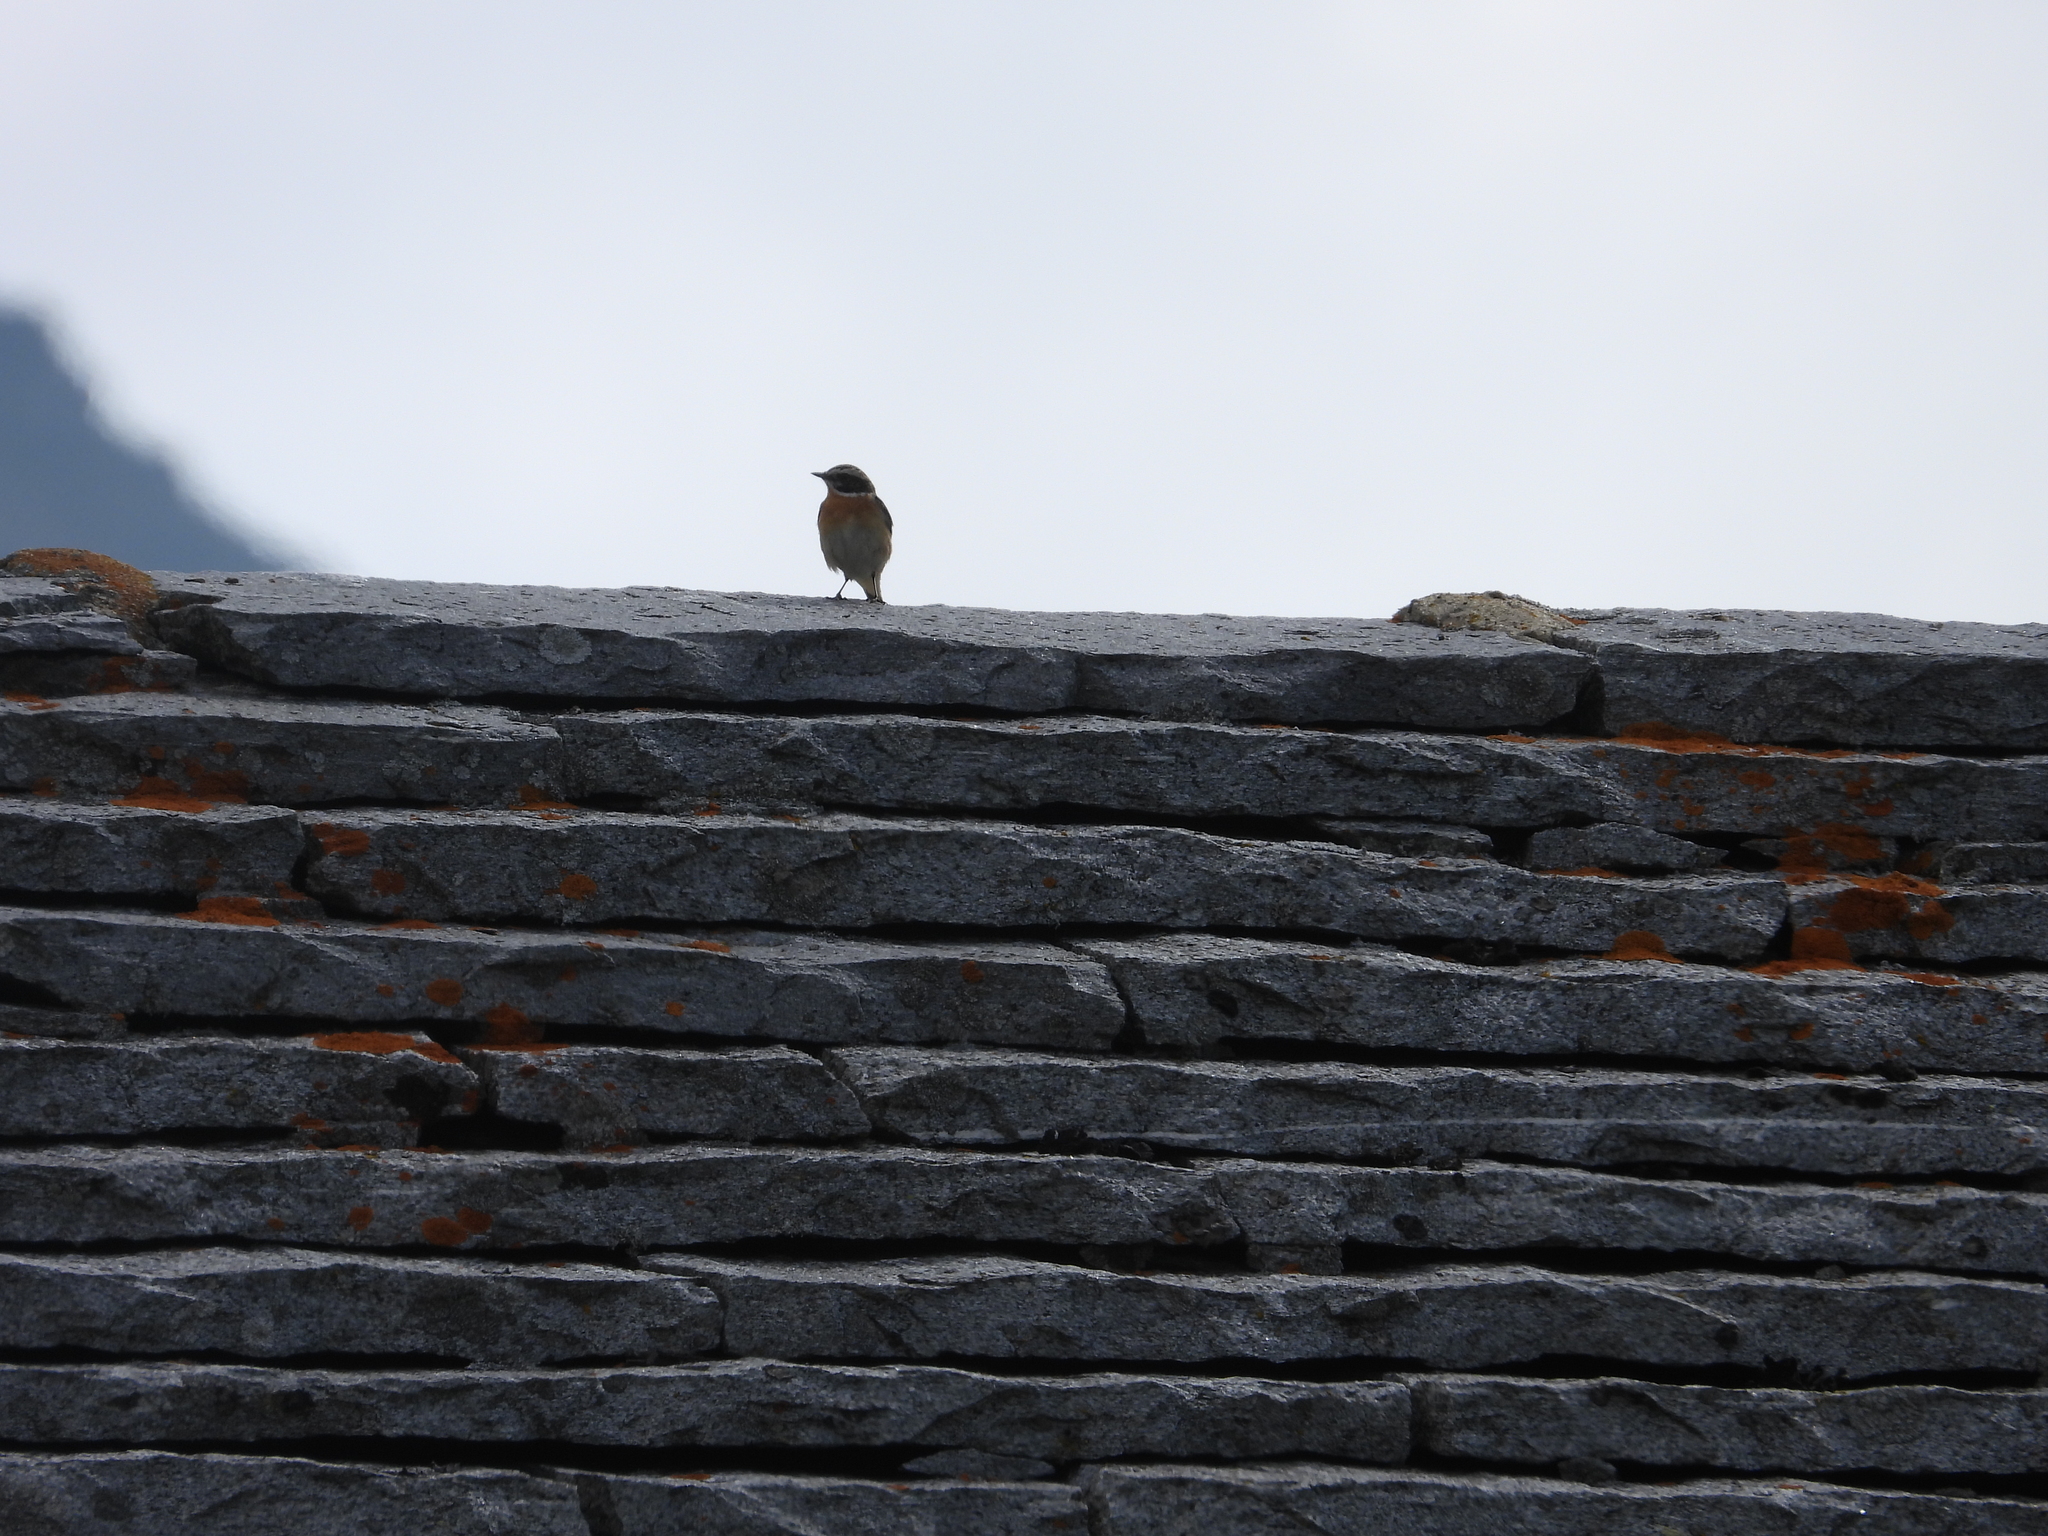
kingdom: Animalia
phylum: Chordata
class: Aves
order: Passeriformes
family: Muscicapidae
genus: Saxicola
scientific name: Saxicola rubetra
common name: Whinchat
